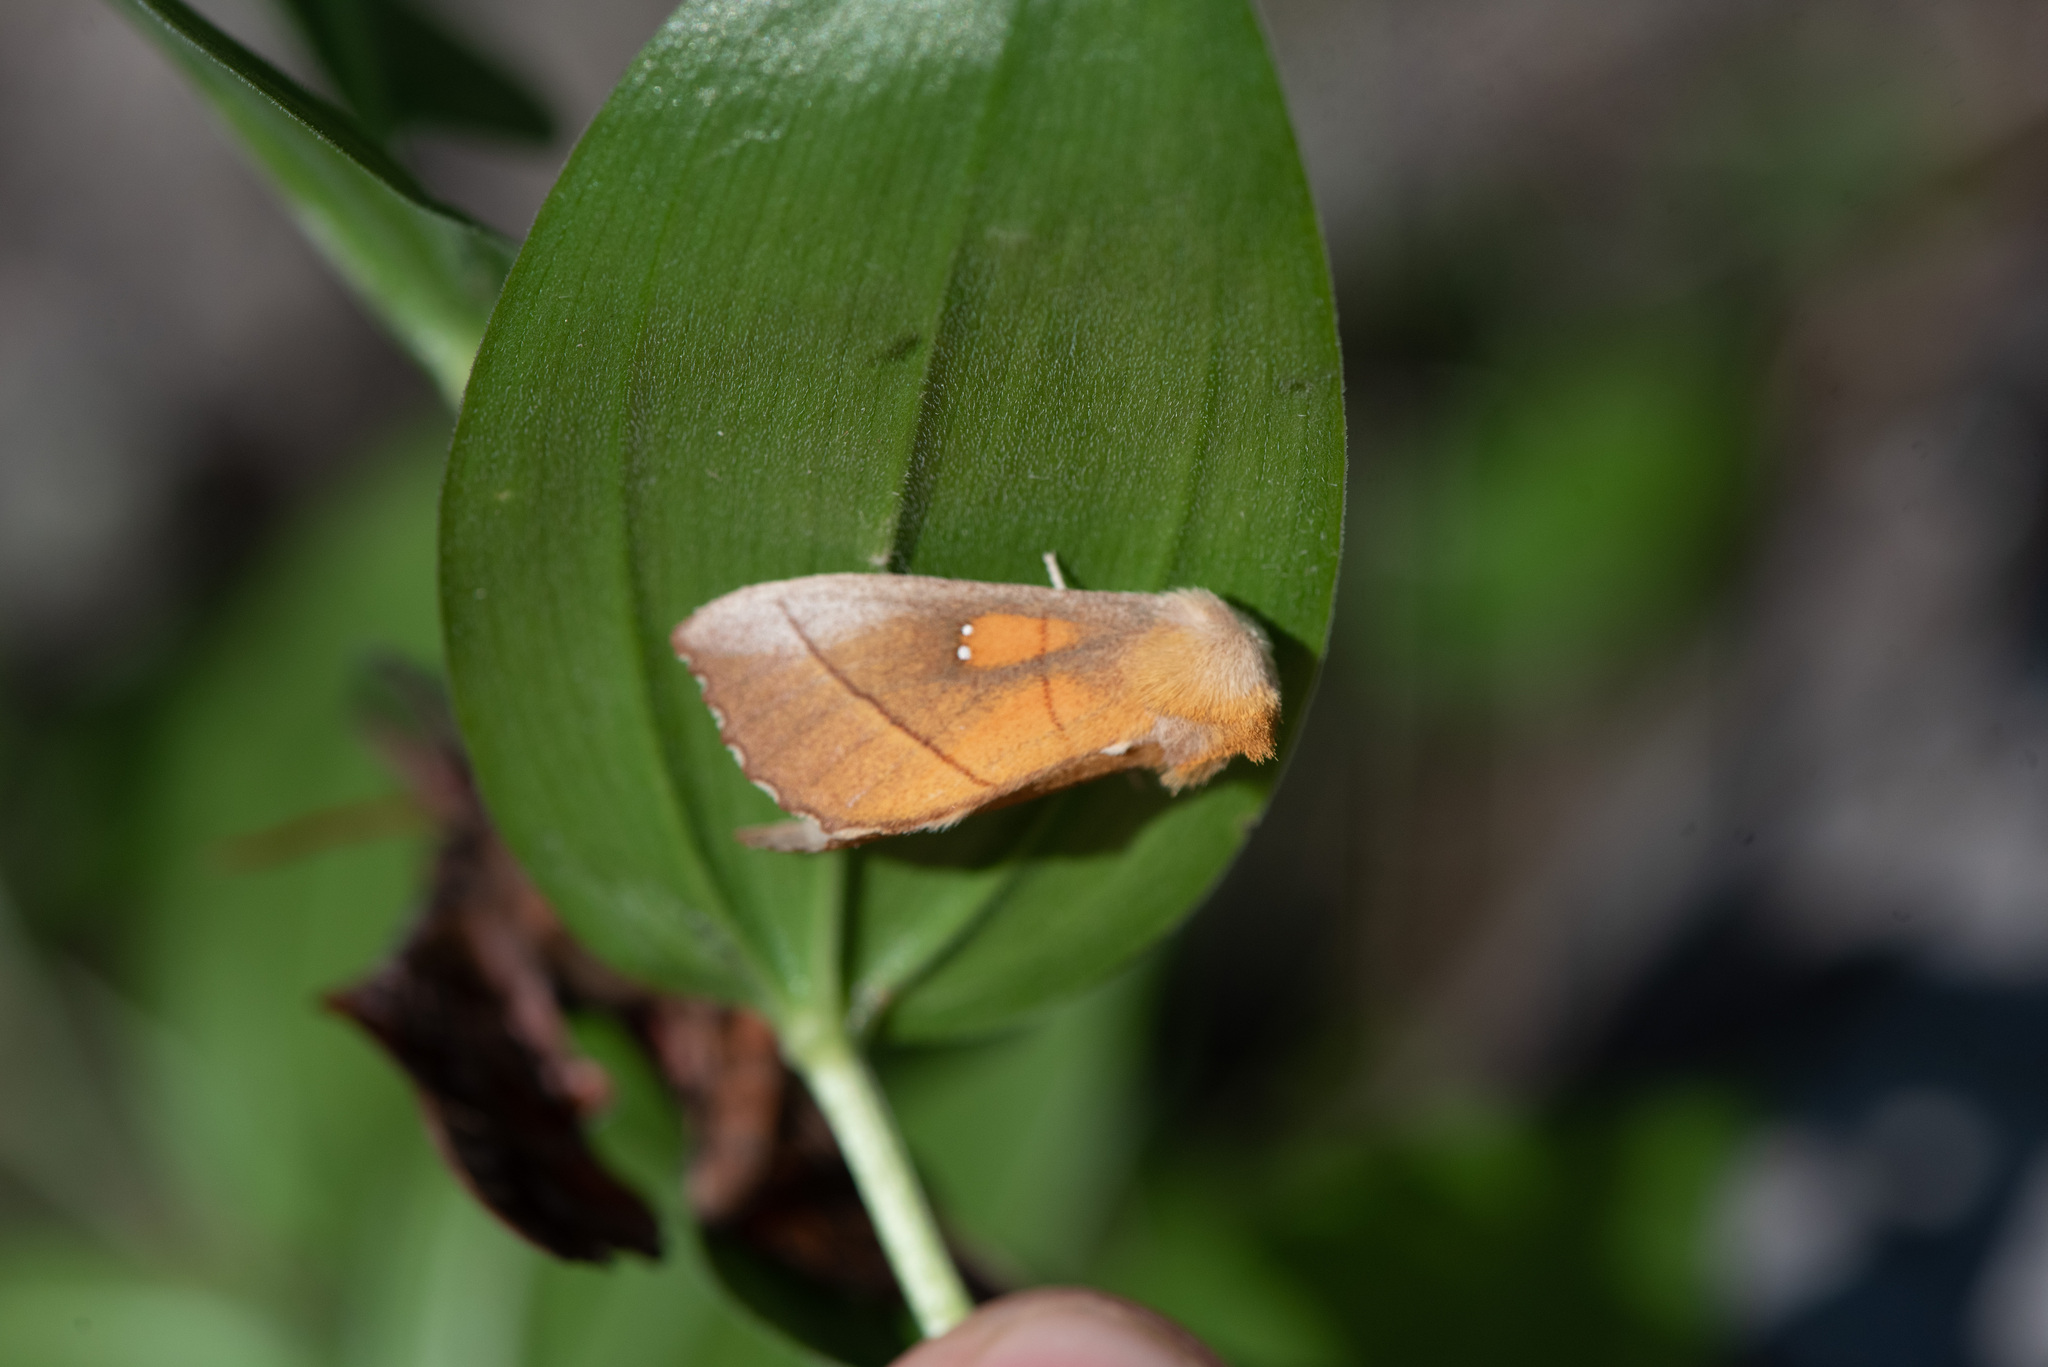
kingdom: Animalia
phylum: Arthropoda
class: Insecta
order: Lepidoptera
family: Notodontidae
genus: Nadata
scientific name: Nadata gibbosa
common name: White-dotted prominent
